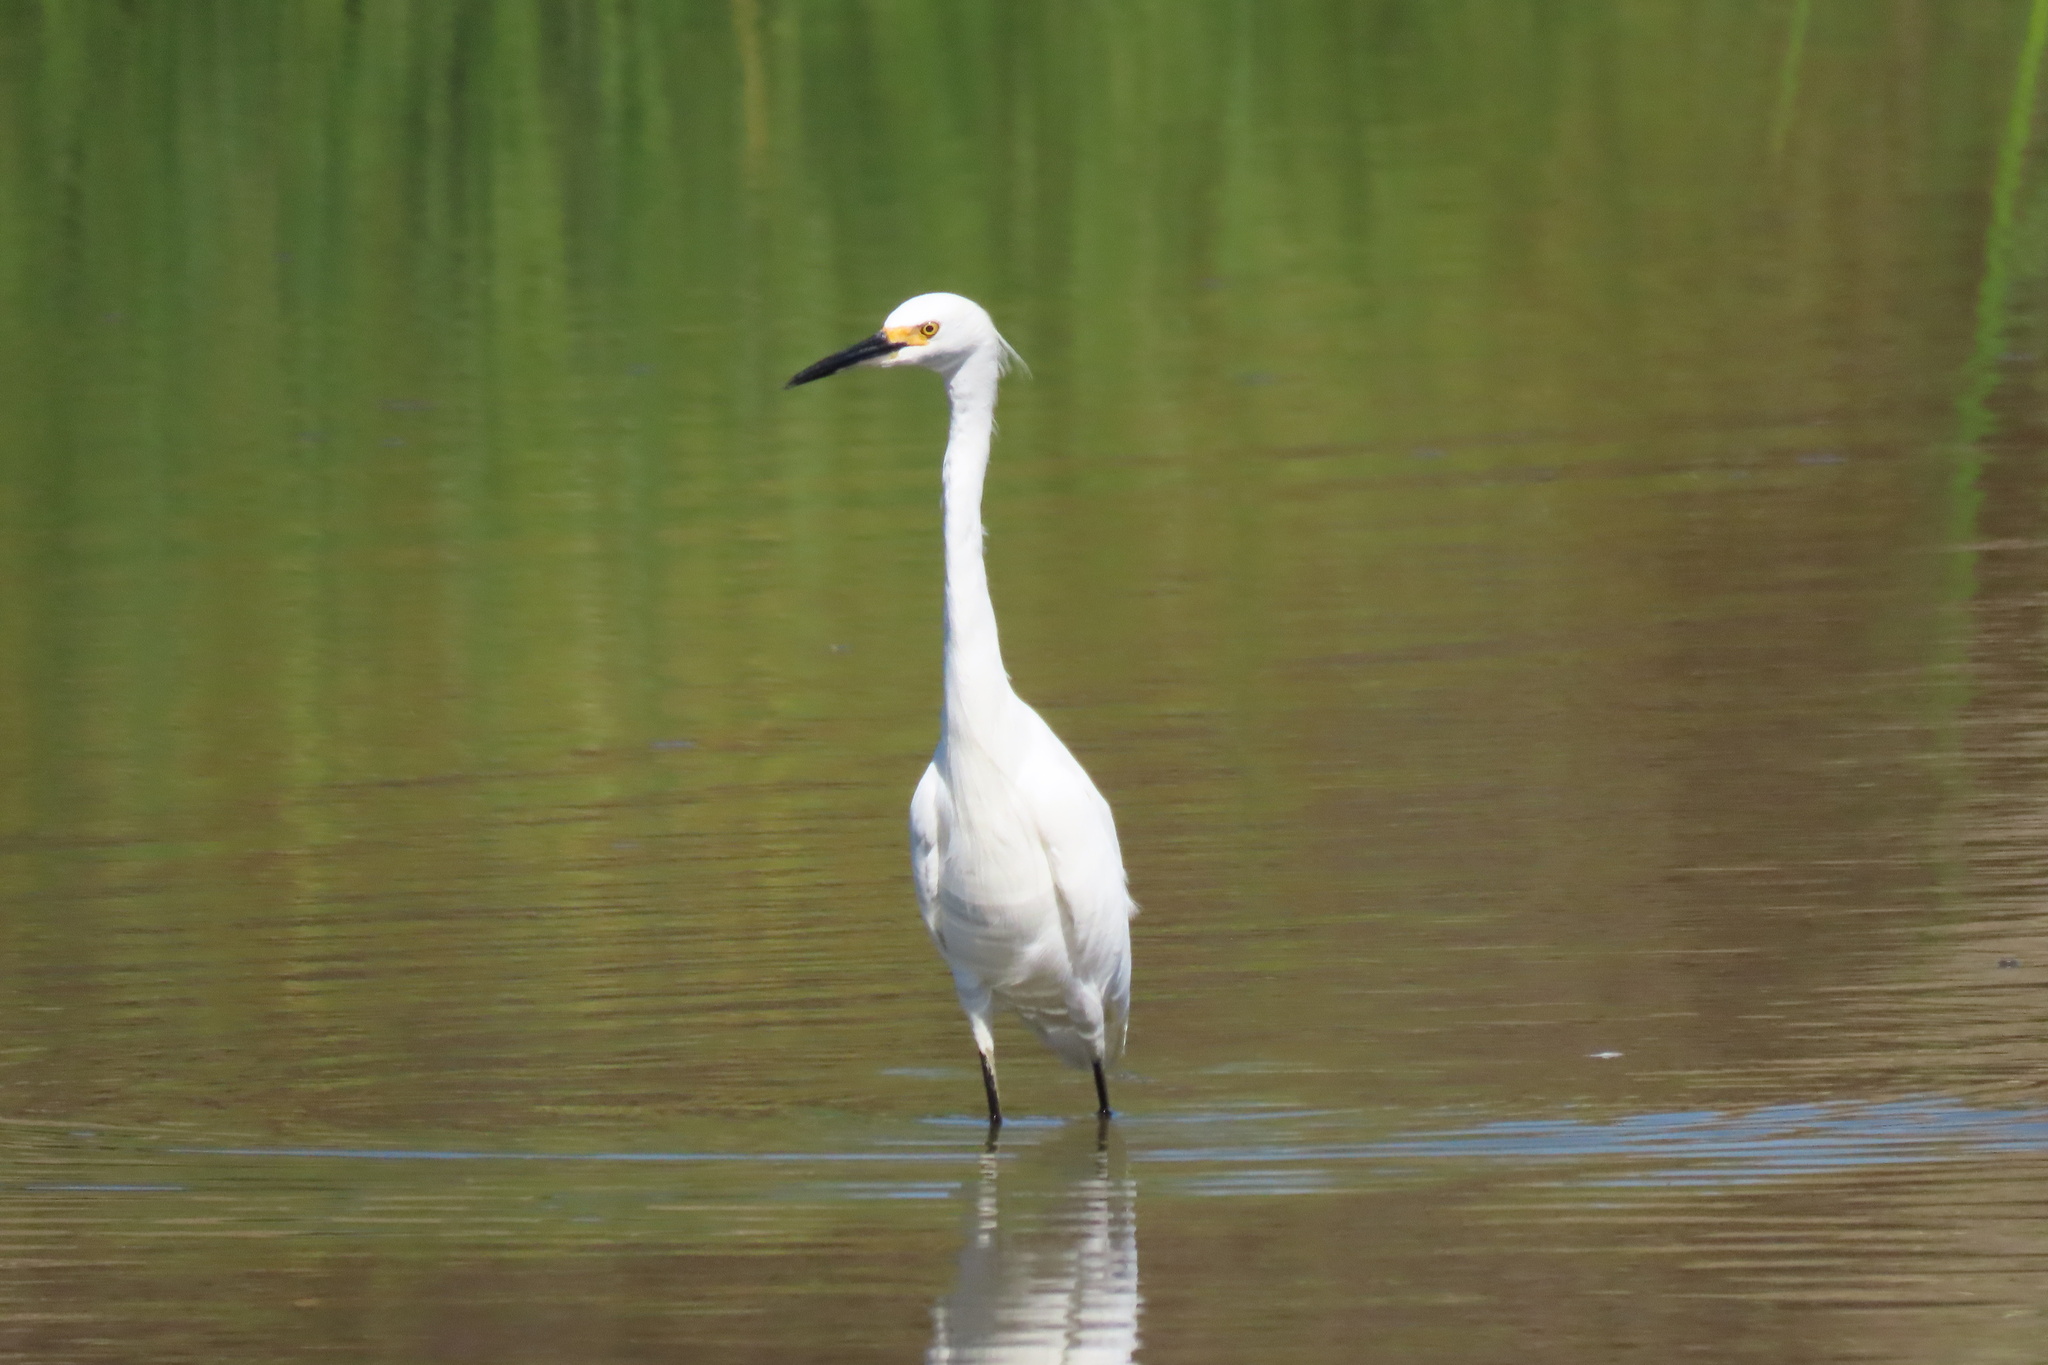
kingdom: Animalia
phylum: Chordata
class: Aves
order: Pelecaniformes
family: Ardeidae
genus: Egretta
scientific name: Egretta thula
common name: Snowy egret
